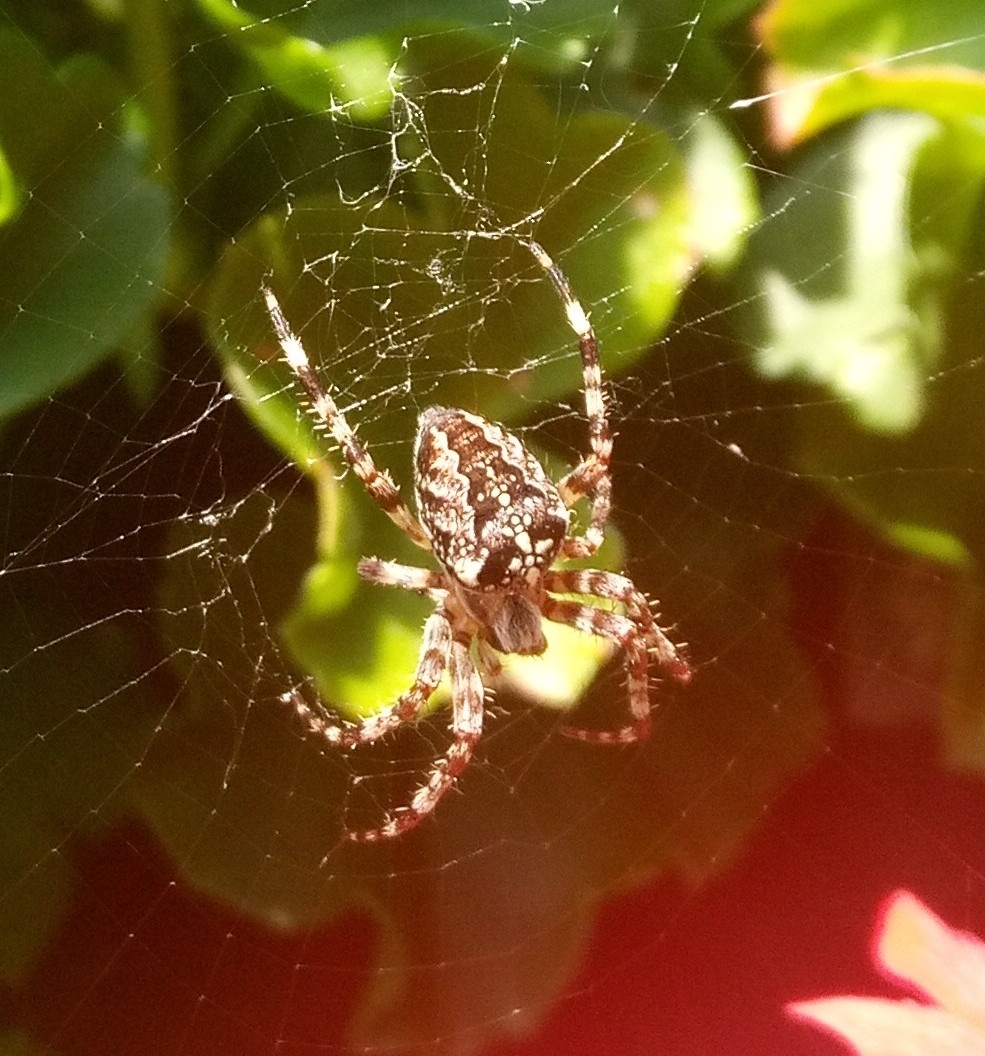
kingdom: Animalia
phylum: Arthropoda
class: Arachnida
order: Araneae
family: Araneidae
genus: Araneus
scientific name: Araneus diadematus
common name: Cross orbweaver
